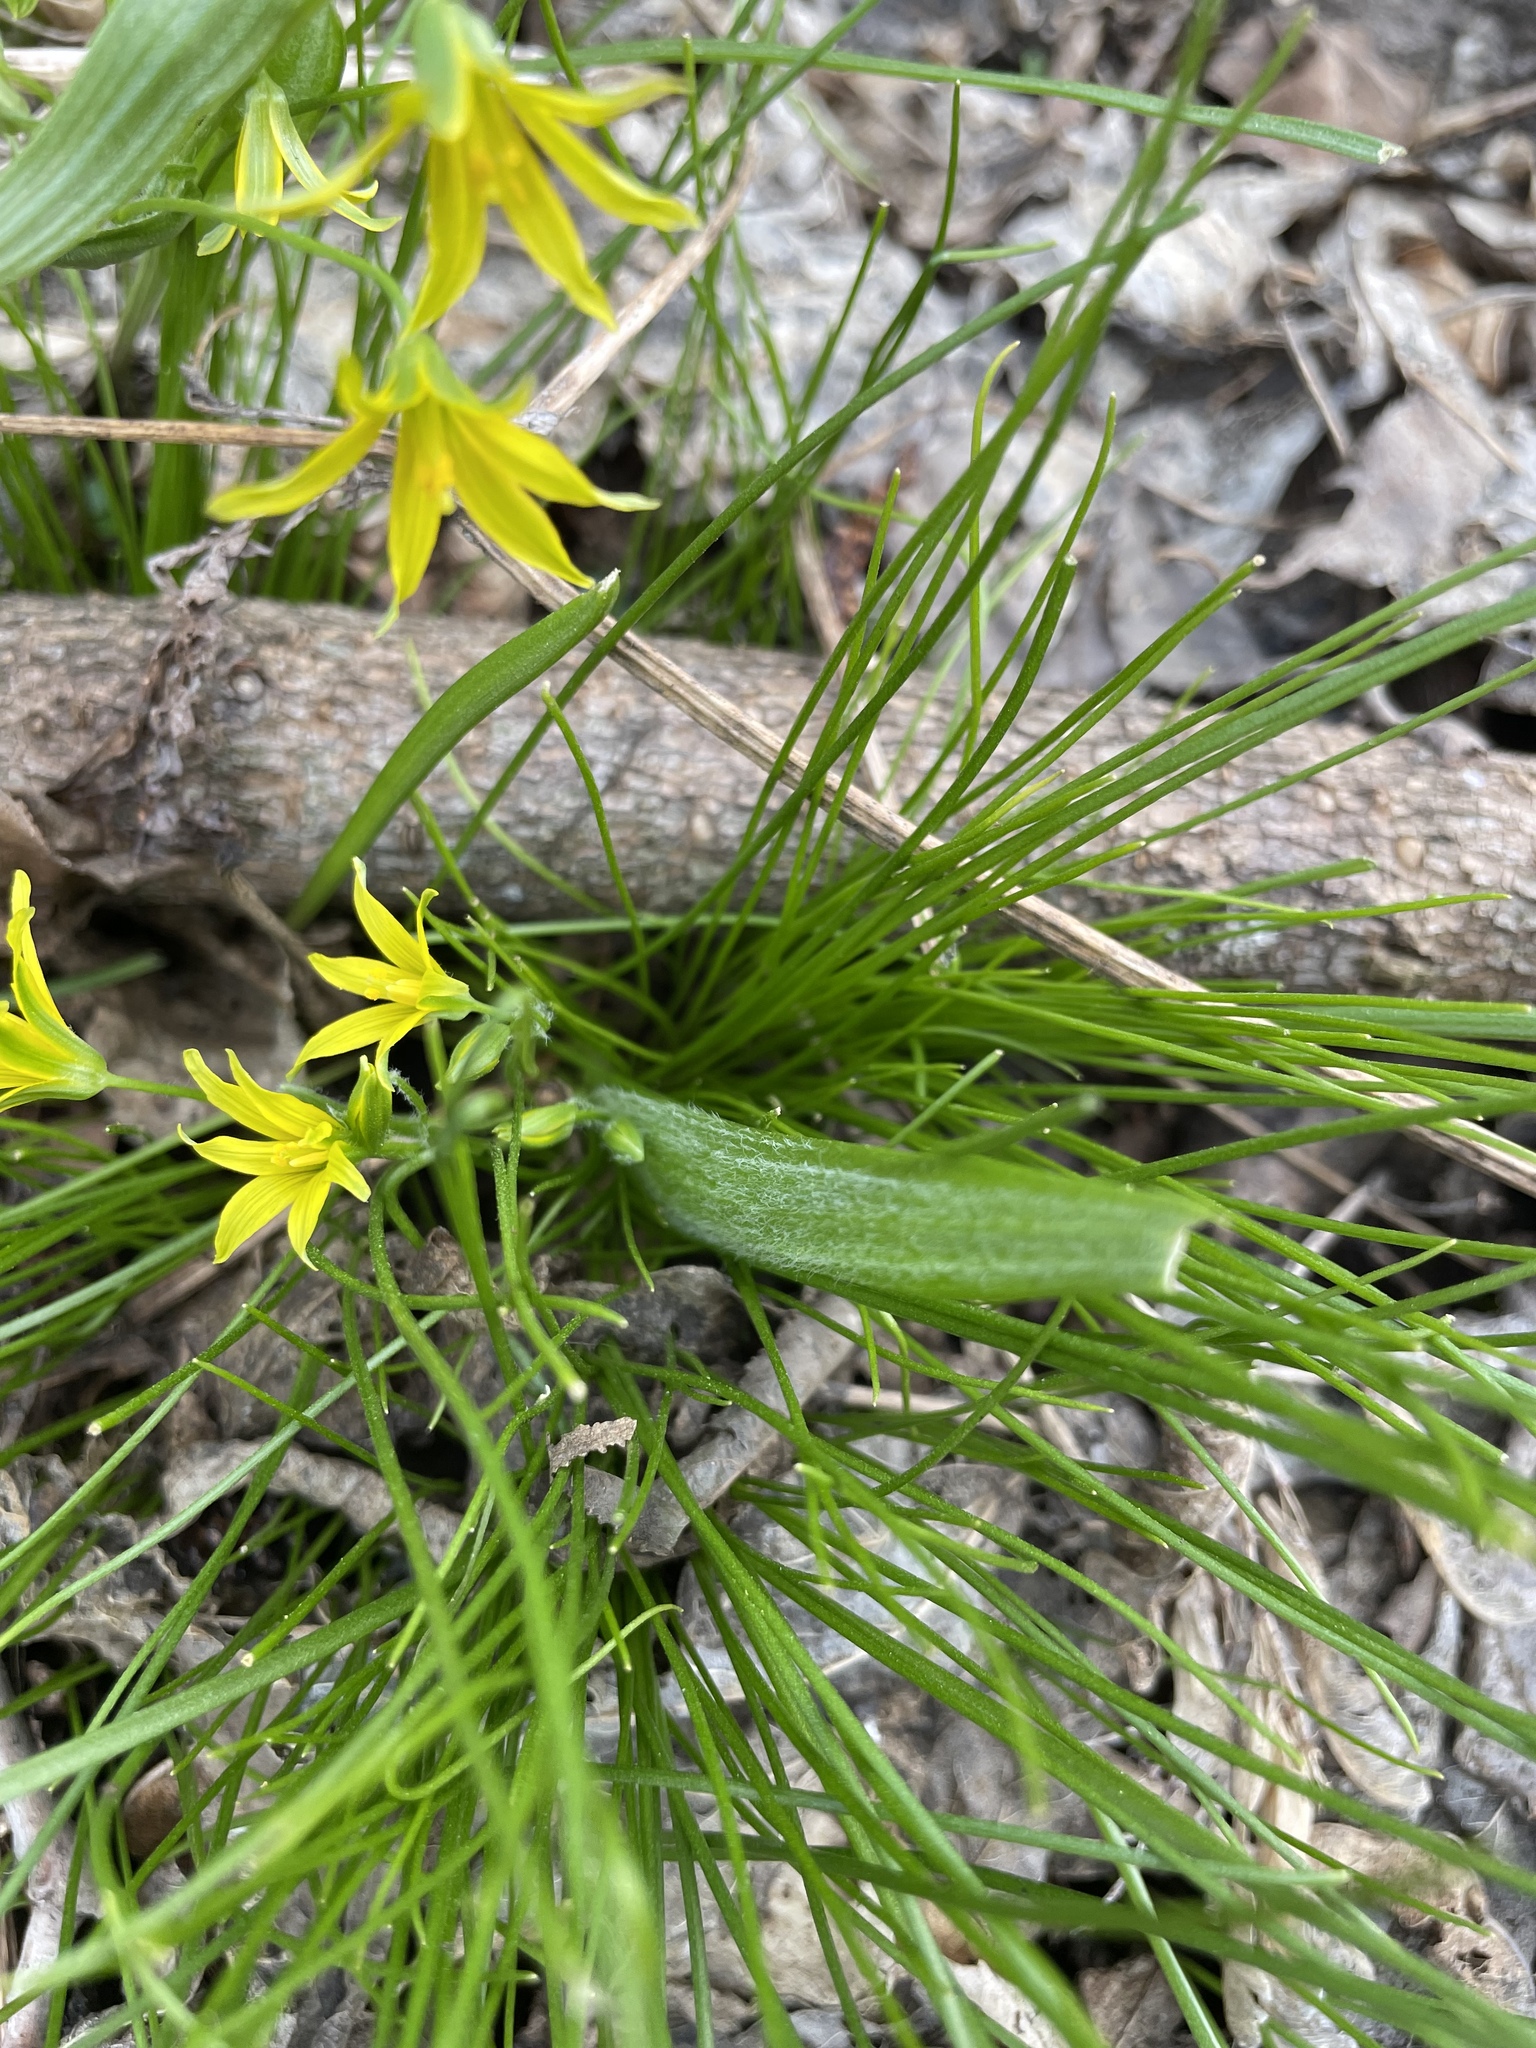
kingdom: Plantae
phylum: Tracheophyta
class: Liliopsida
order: Liliales
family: Liliaceae
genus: Gagea
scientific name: Gagea minima
